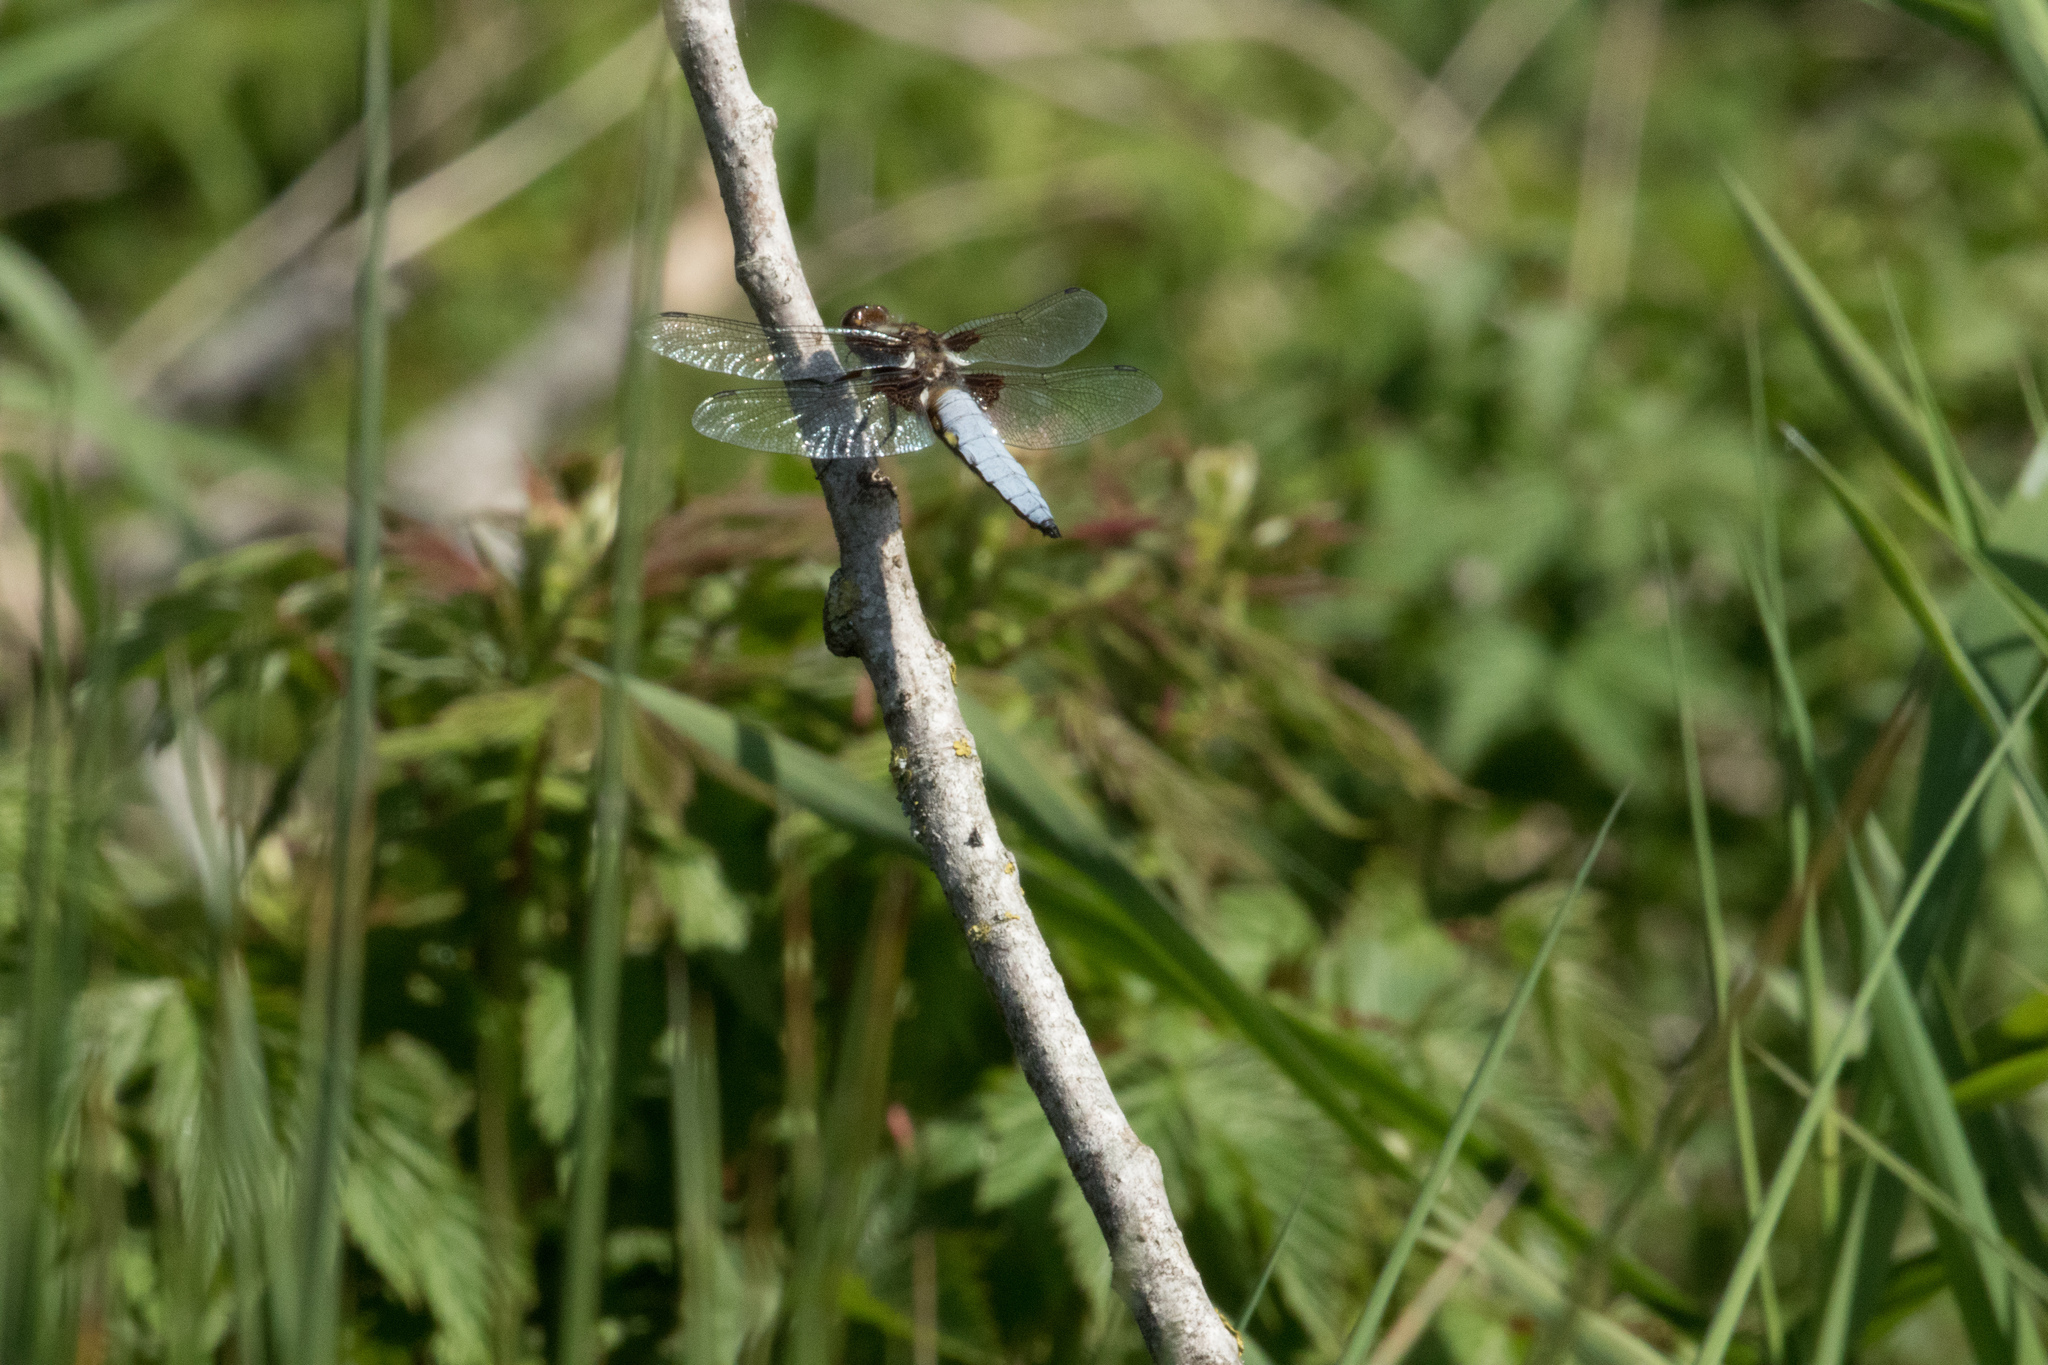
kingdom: Animalia
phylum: Arthropoda
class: Insecta
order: Odonata
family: Libellulidae
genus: Libellula
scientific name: Libellula depressa
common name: Broad-bodied chaser
